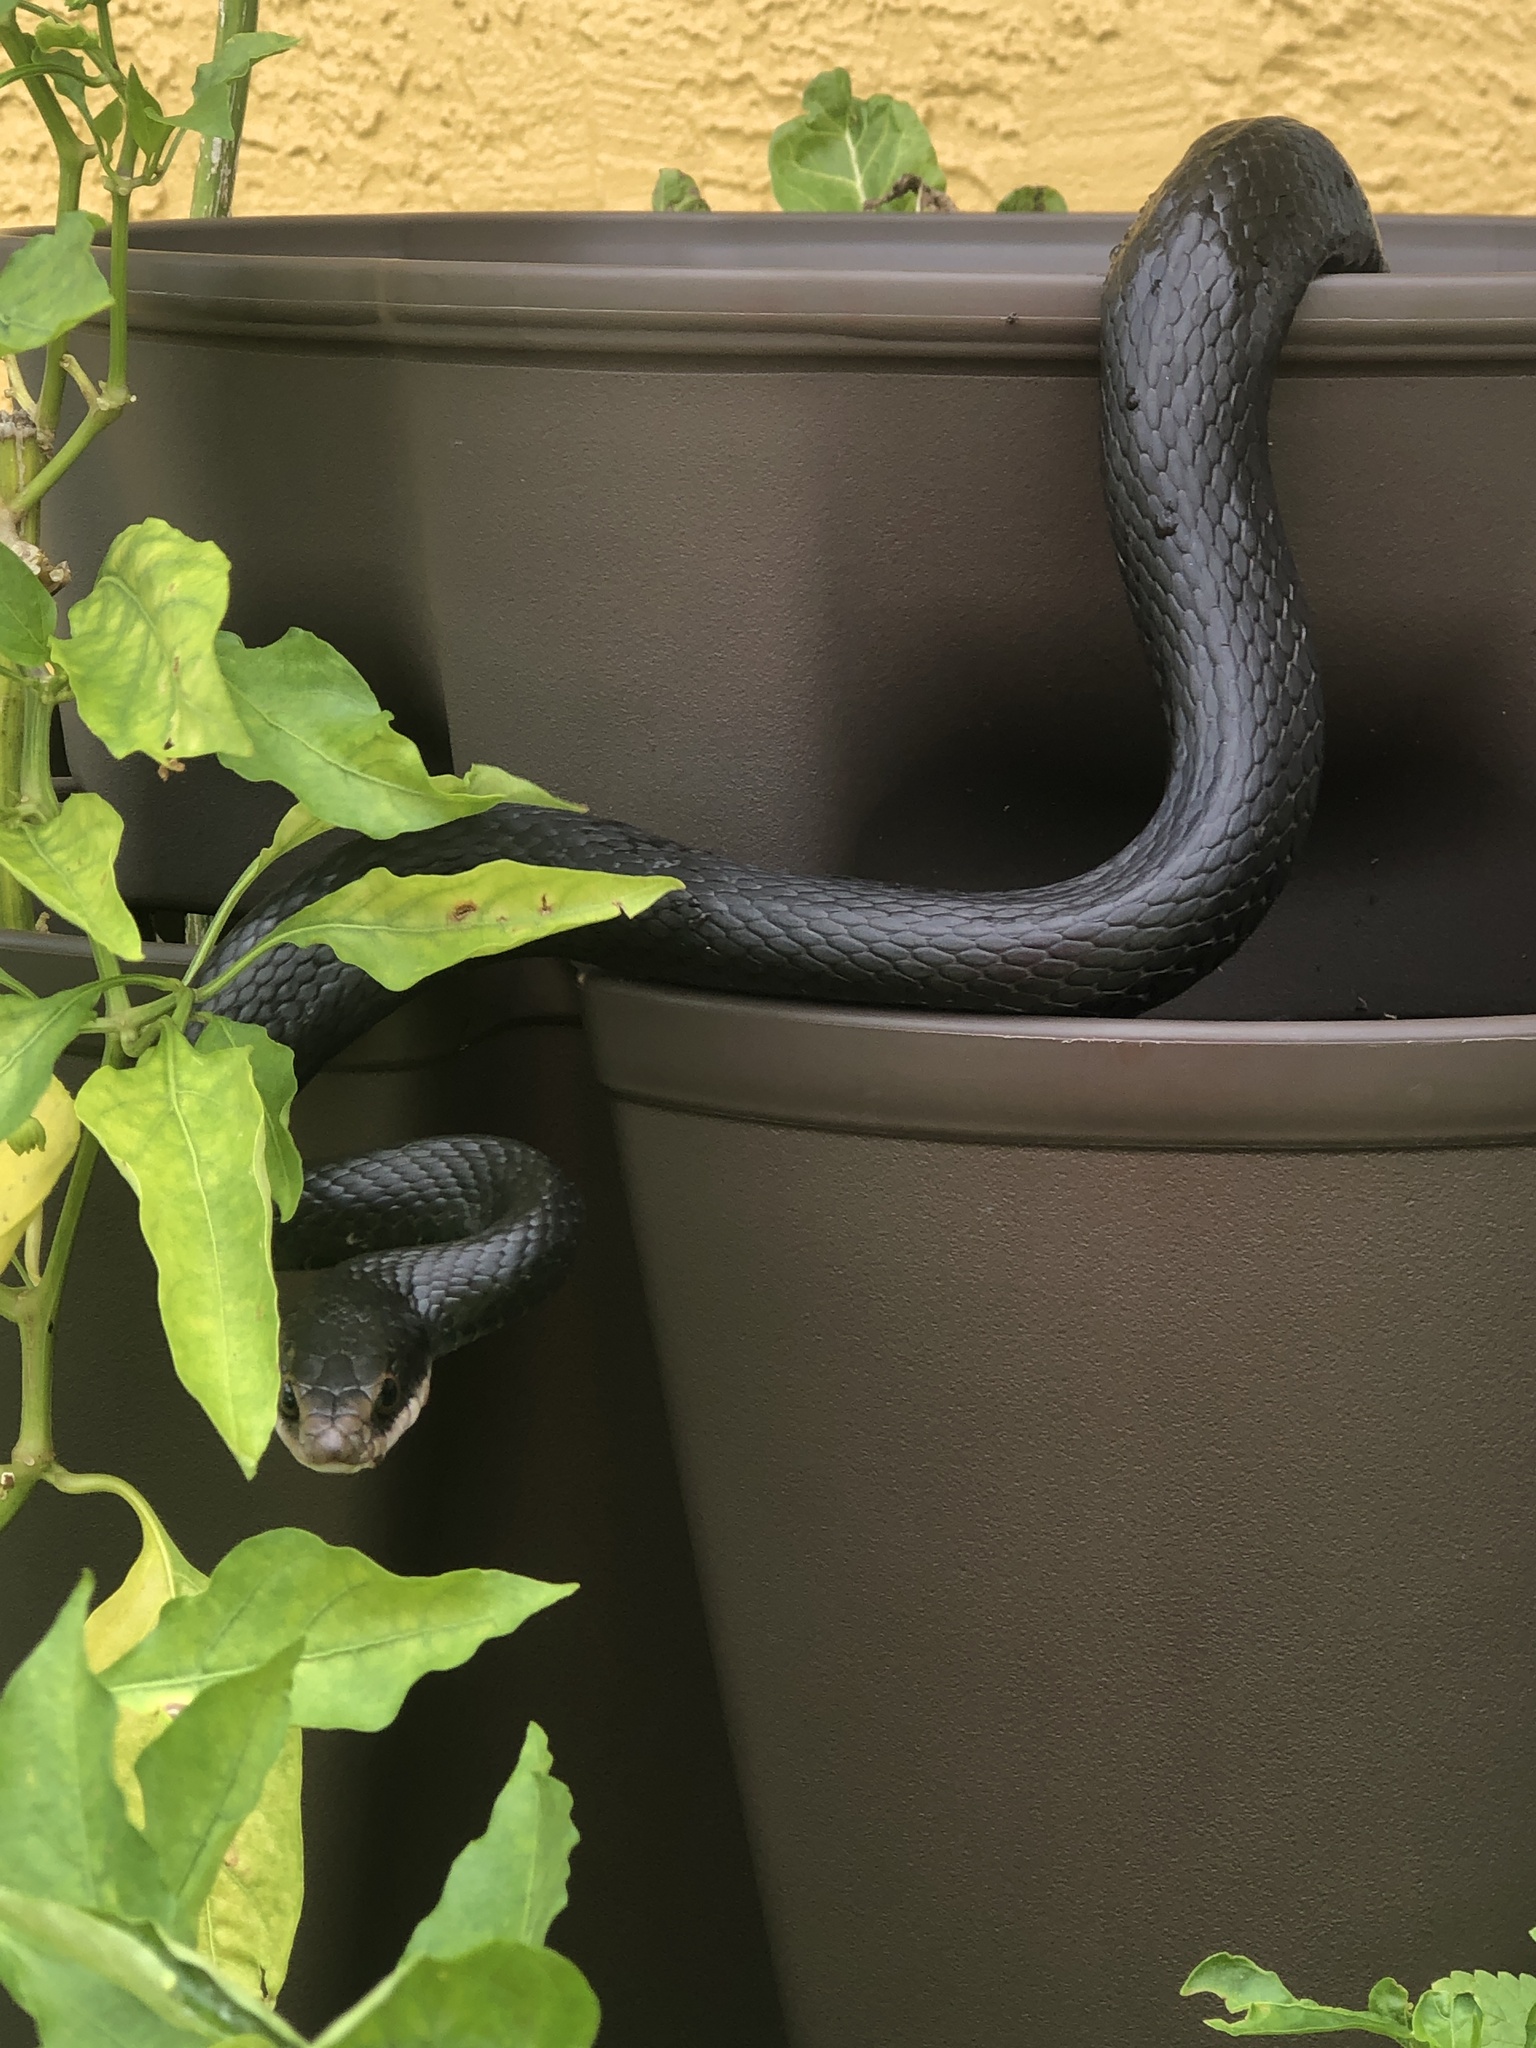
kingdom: Animalia
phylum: Chordata
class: Squamata
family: Colubridae
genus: Coluber
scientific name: Coluber constrictor
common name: Eastern racer
